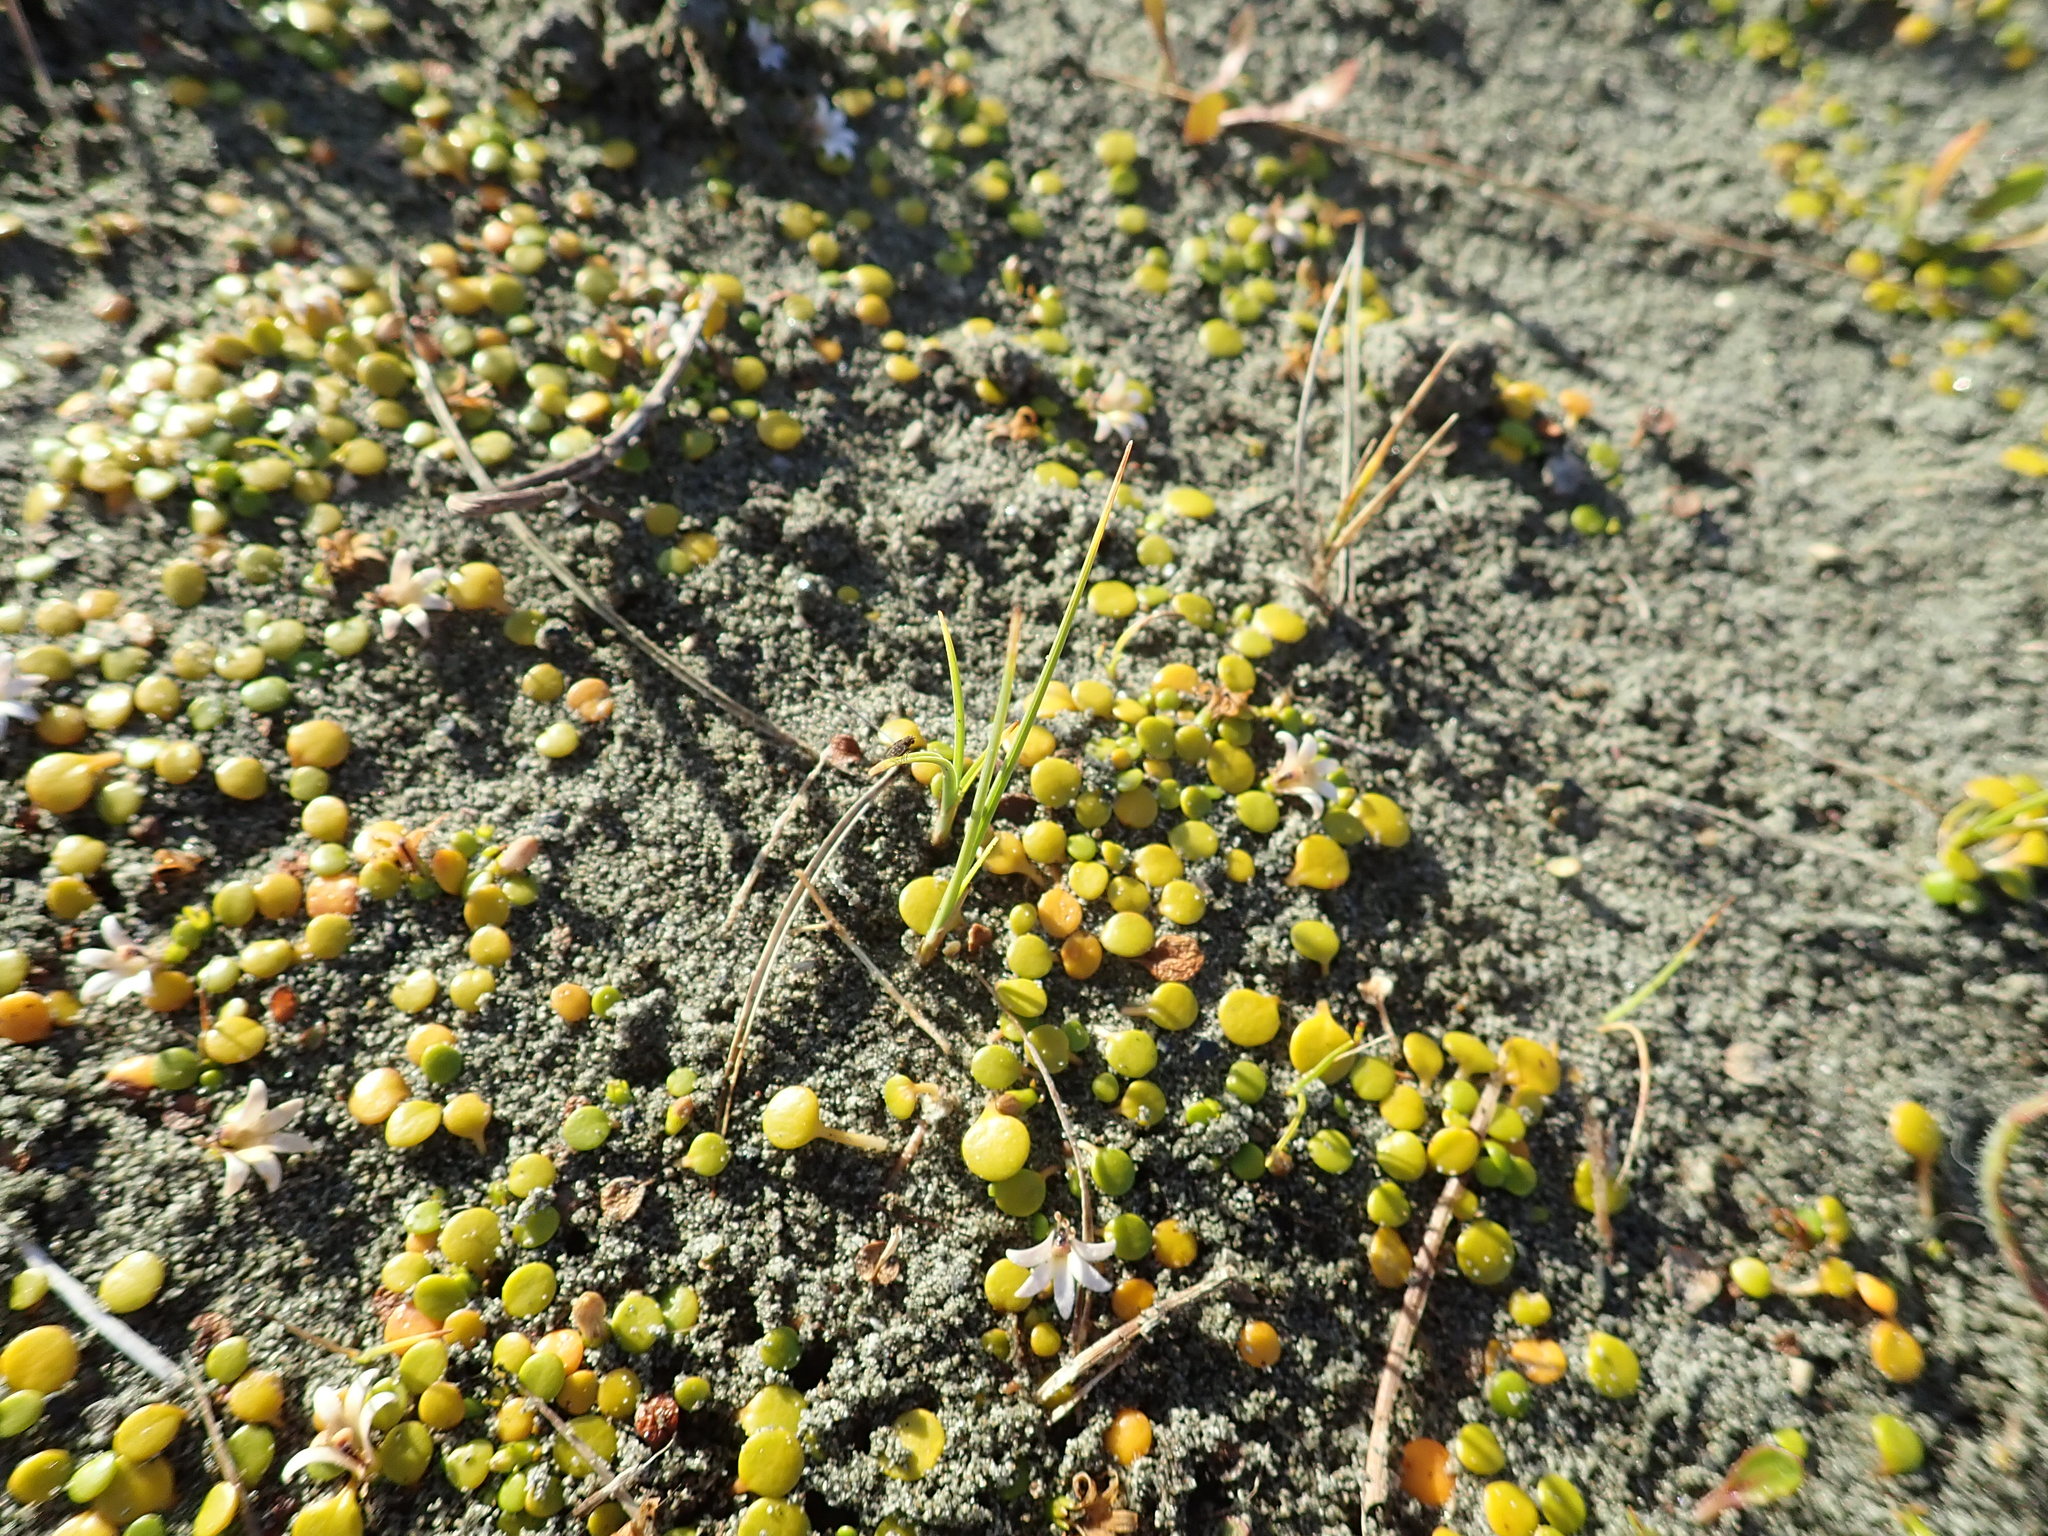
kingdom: Plantae
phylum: Tracheophyta
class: Magnoliopsida
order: Asterales
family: Goodeniaceae
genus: Goodenia
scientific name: Goodenia heenanii
